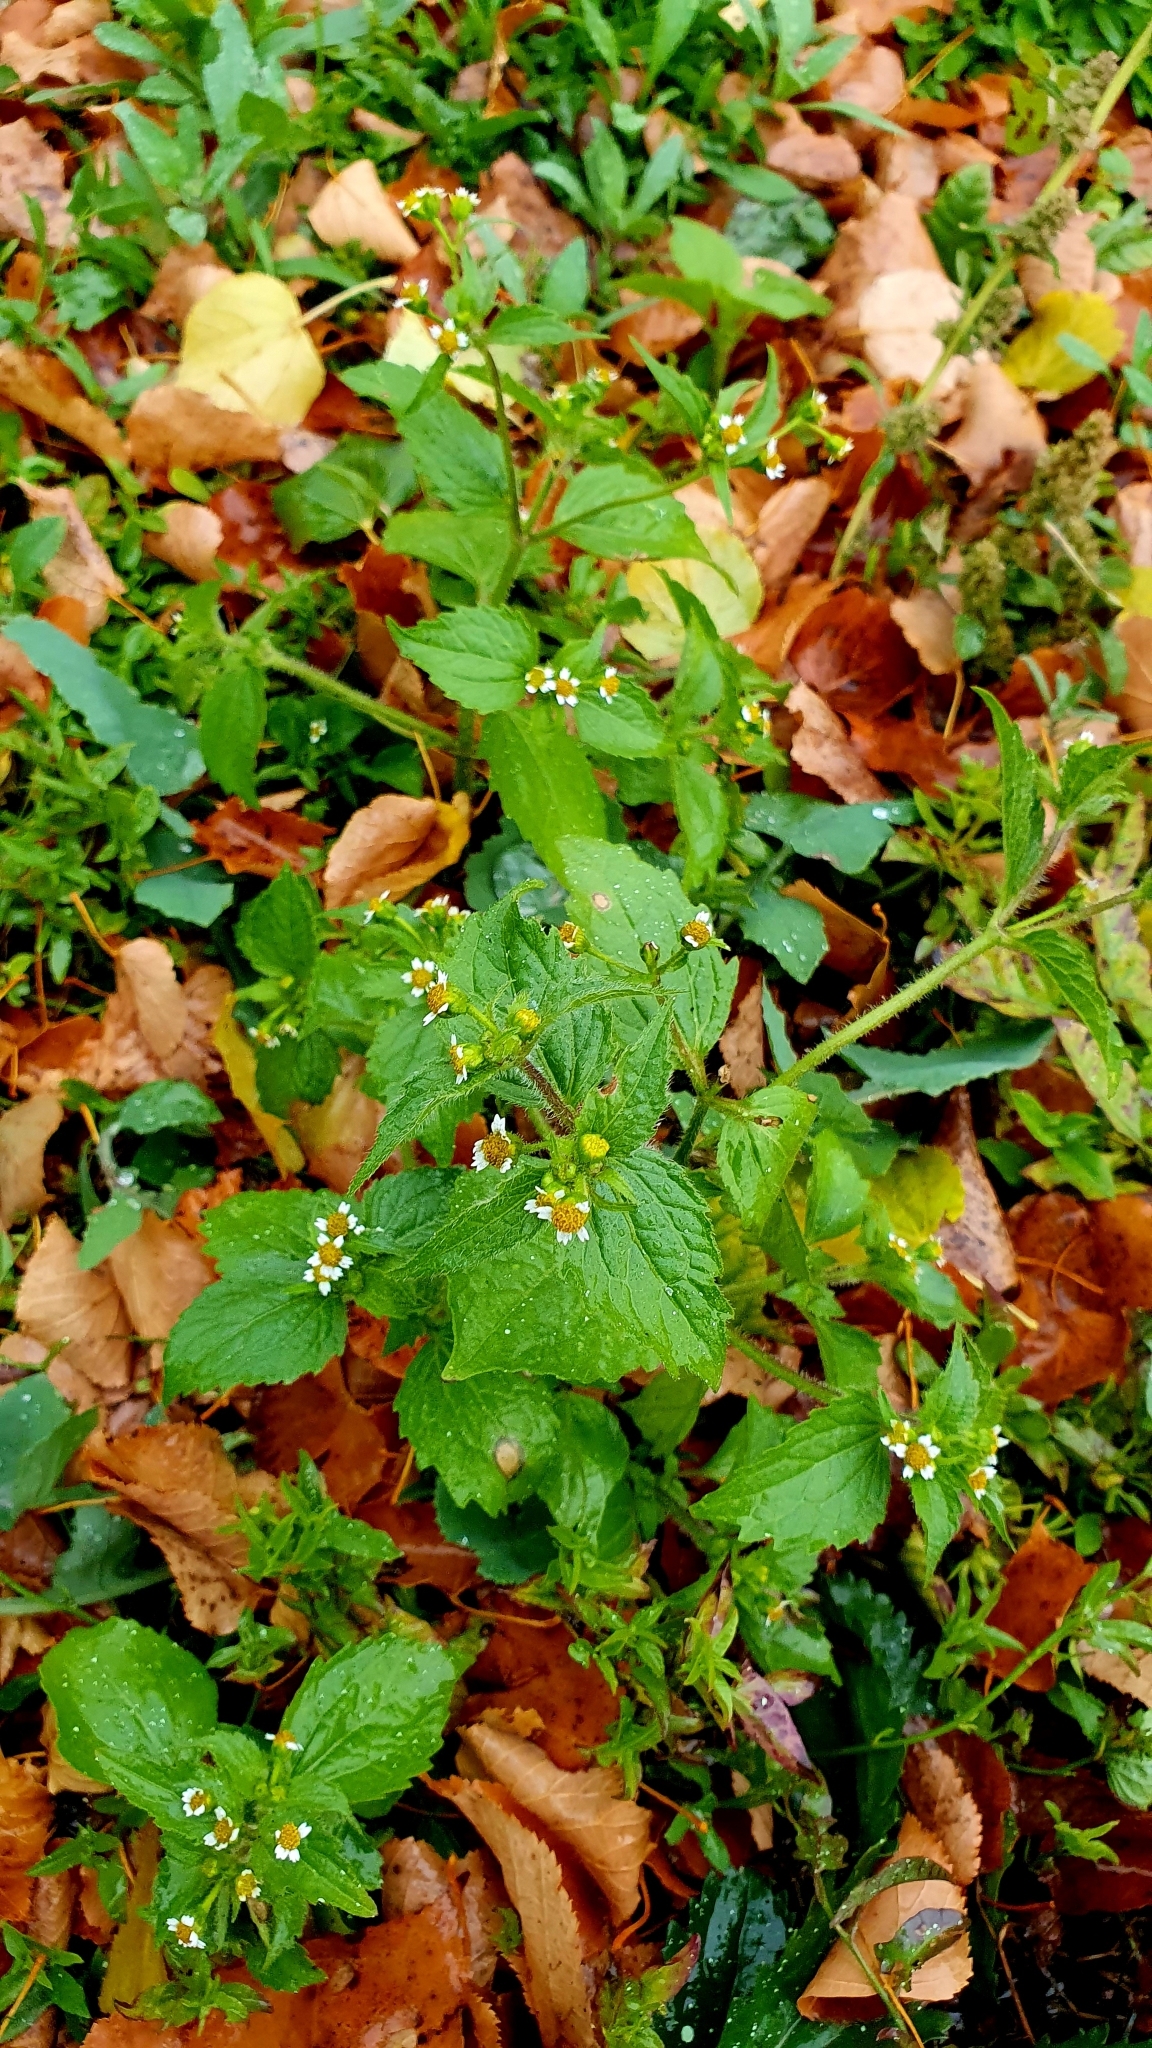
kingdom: Plantae
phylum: Tracheophyta
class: Magnoliopsida
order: Asterales
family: Asteraceae
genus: Galinsoga
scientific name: Galinsoga quadriradiata
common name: Shaggy soldier
